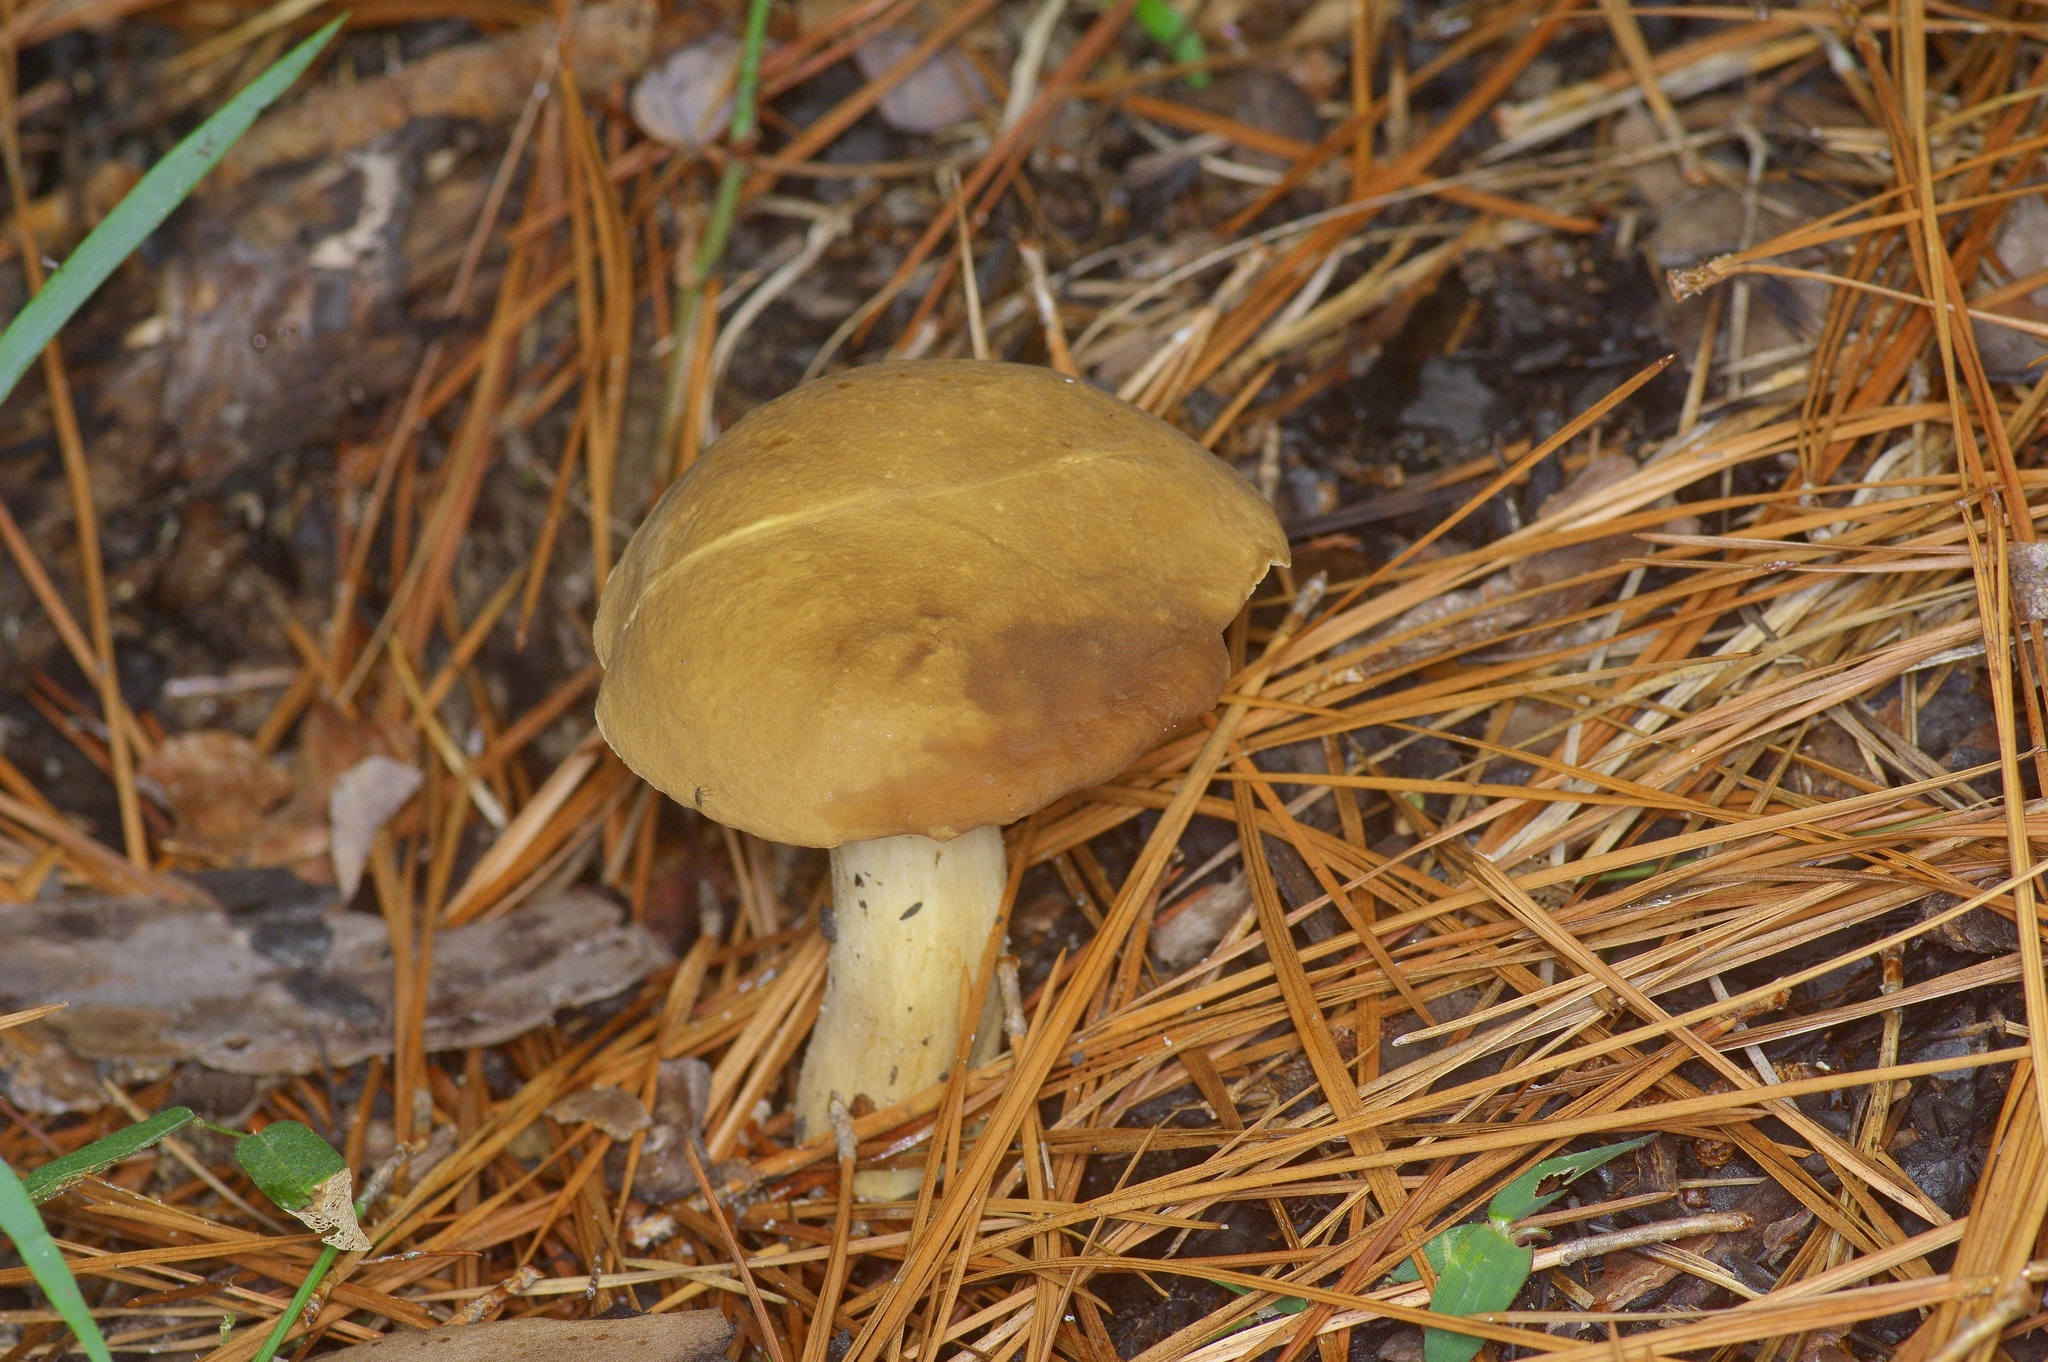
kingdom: Fungi
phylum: Basidiomycota
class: Agaricomycetes
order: Boletales
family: Boletaceae
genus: Xanthoconium
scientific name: Xanthoconium affine
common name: Spotted bolete
